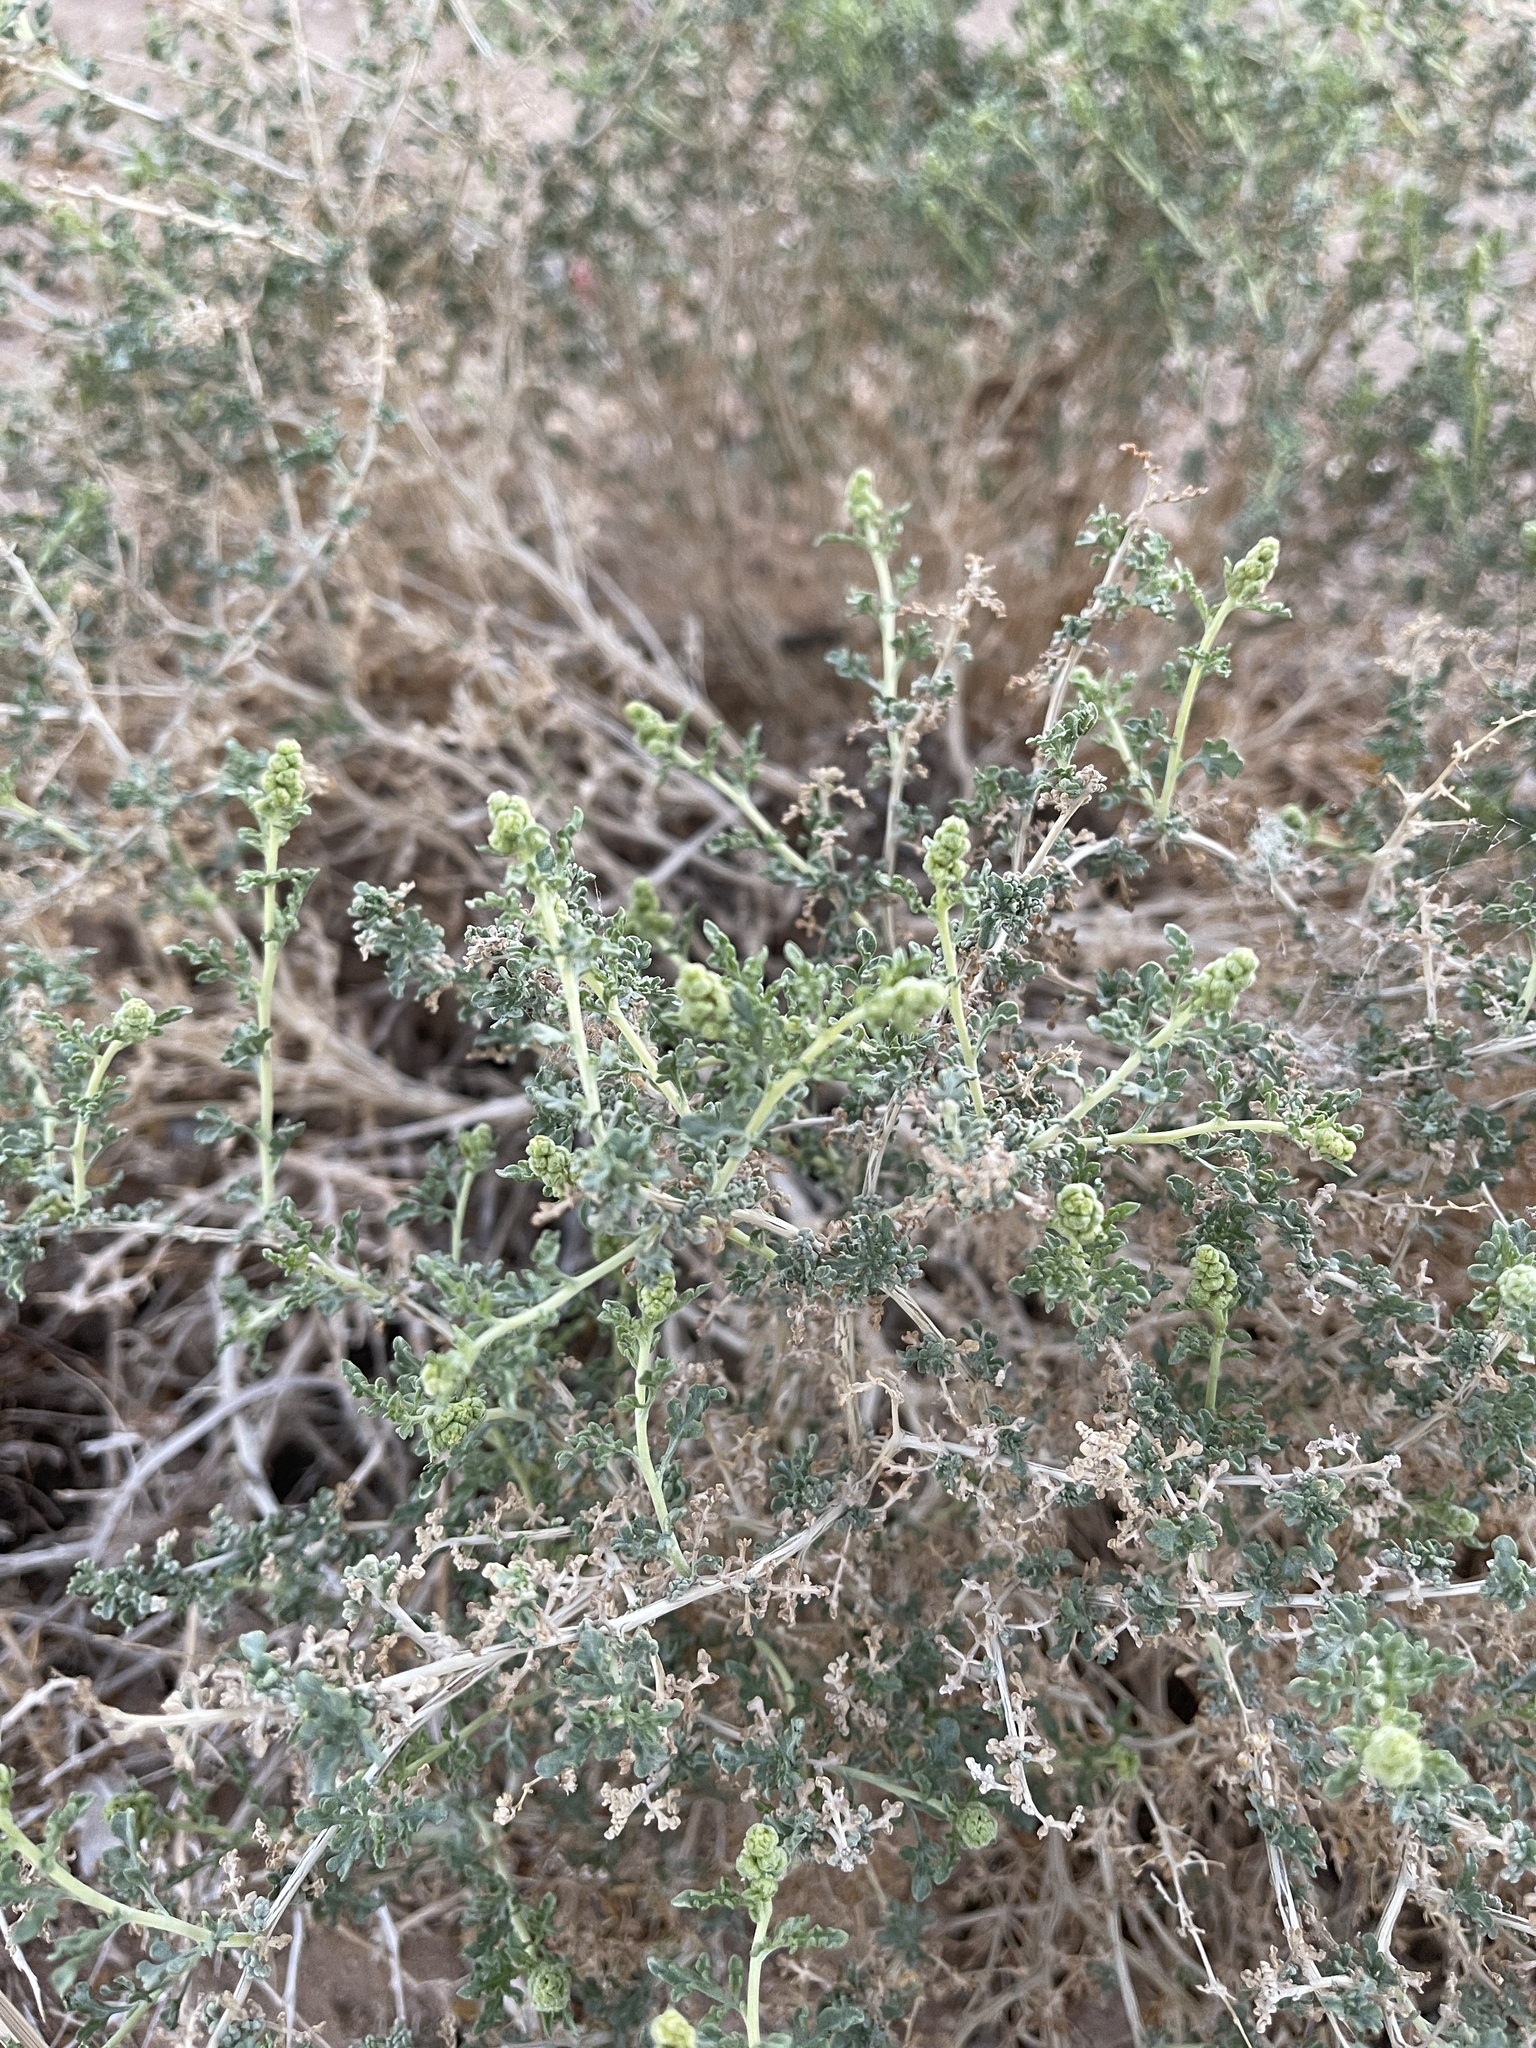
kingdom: Plantae
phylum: Tracheophyta
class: Magnoliopsida
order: Asterales
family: Asteraceae
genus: Ambrosia
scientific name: Ambrosia dumosa
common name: Bur-sage
